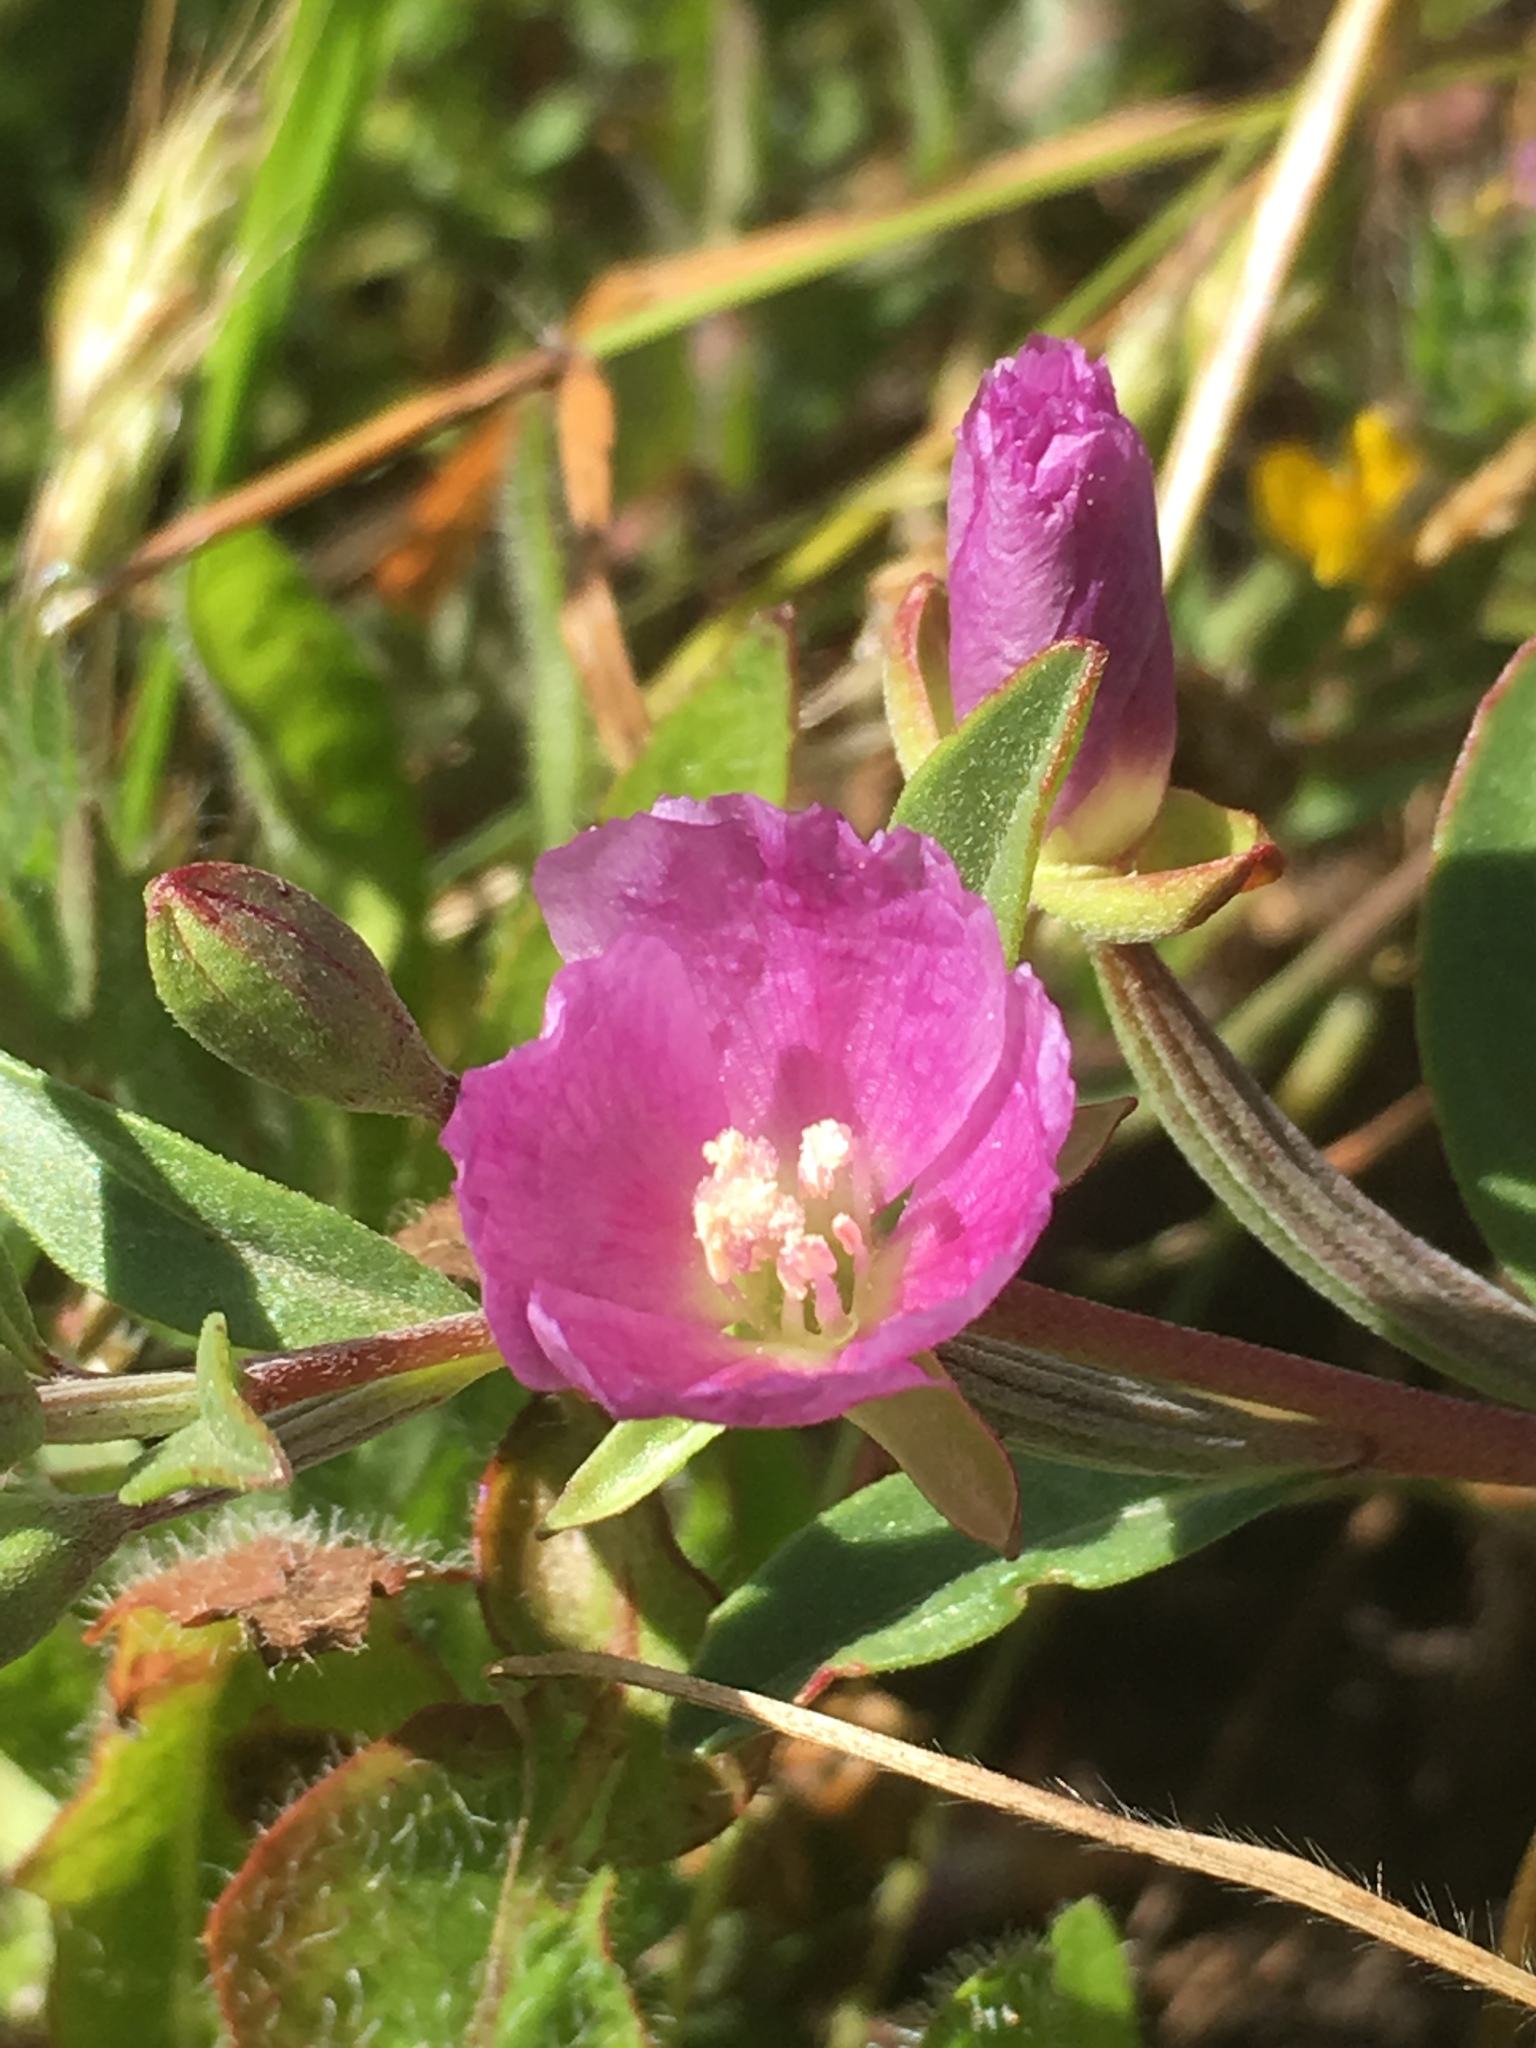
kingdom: Plantae
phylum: Tracheophyta
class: Magnoliopsida
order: Myrtales
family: Onagraceae
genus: Clarkia
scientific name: Clarkia davyi
